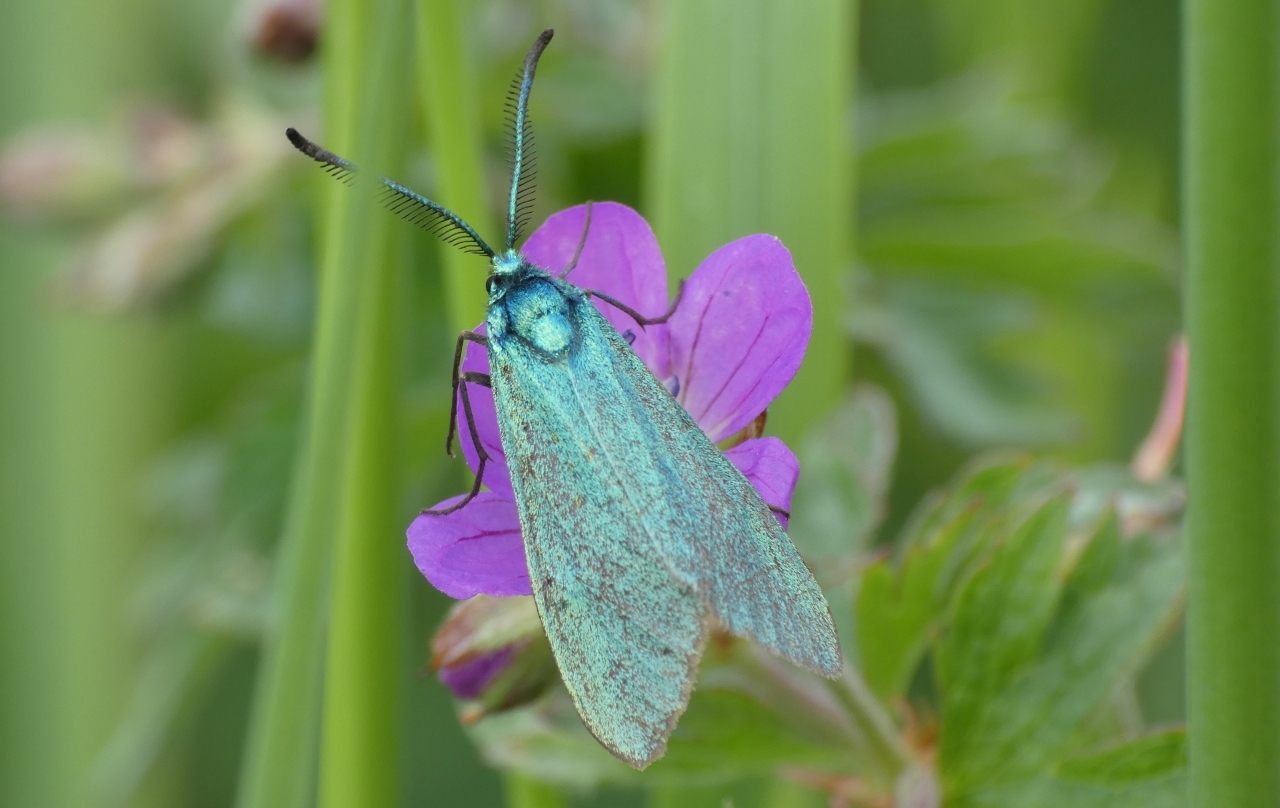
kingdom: Animalia
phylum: Arthropoda
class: Insecta
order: Lepidoptera
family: Zygaenidae
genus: Adscita
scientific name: Adscita statices
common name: Forester
